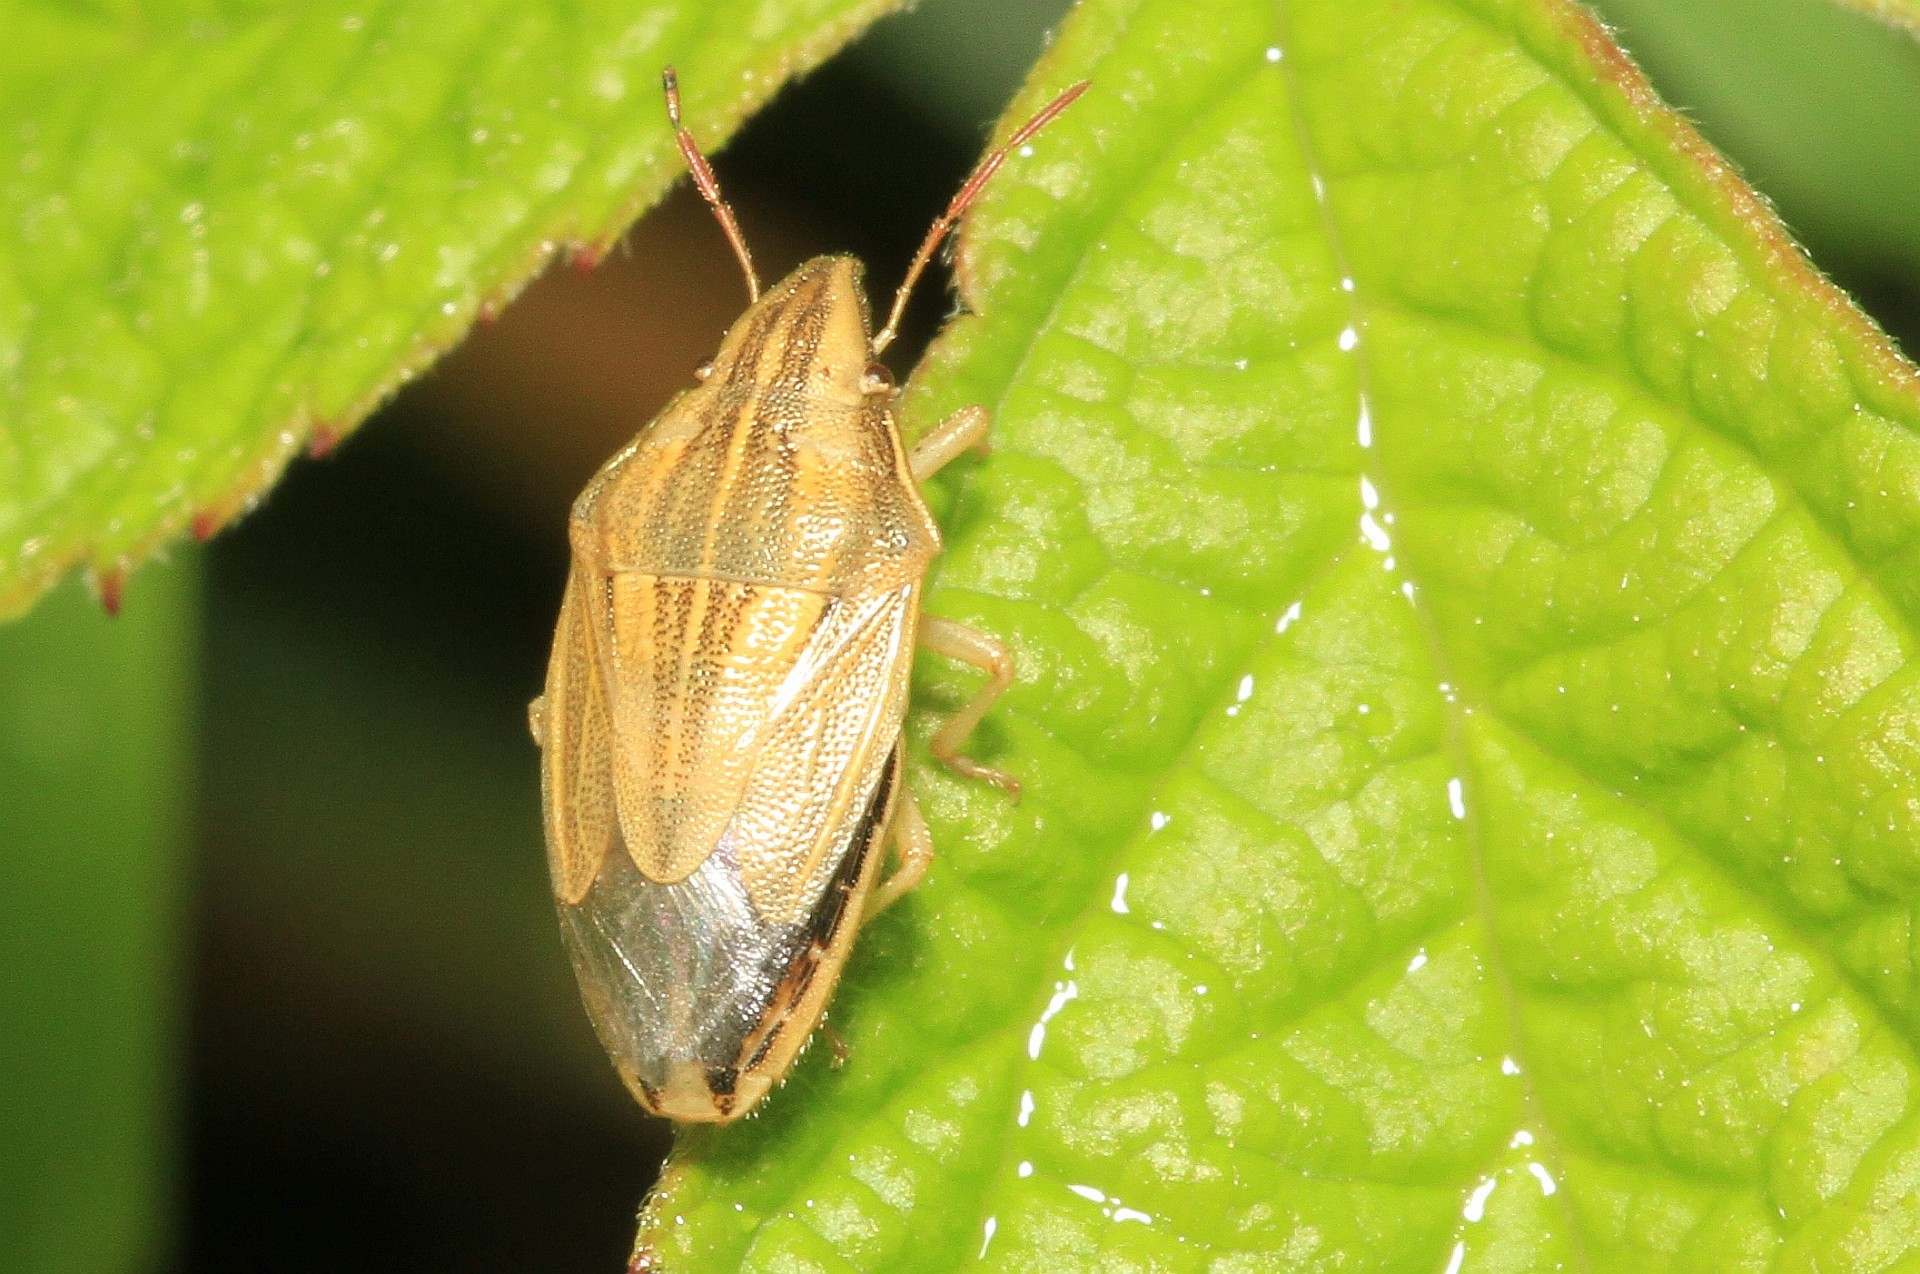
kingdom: Animalia
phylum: Arthropoda
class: Insecta
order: Hemiptera
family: Pentatomidae
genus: Aelia
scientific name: Aelia acuminata
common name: Bishop's mitre
